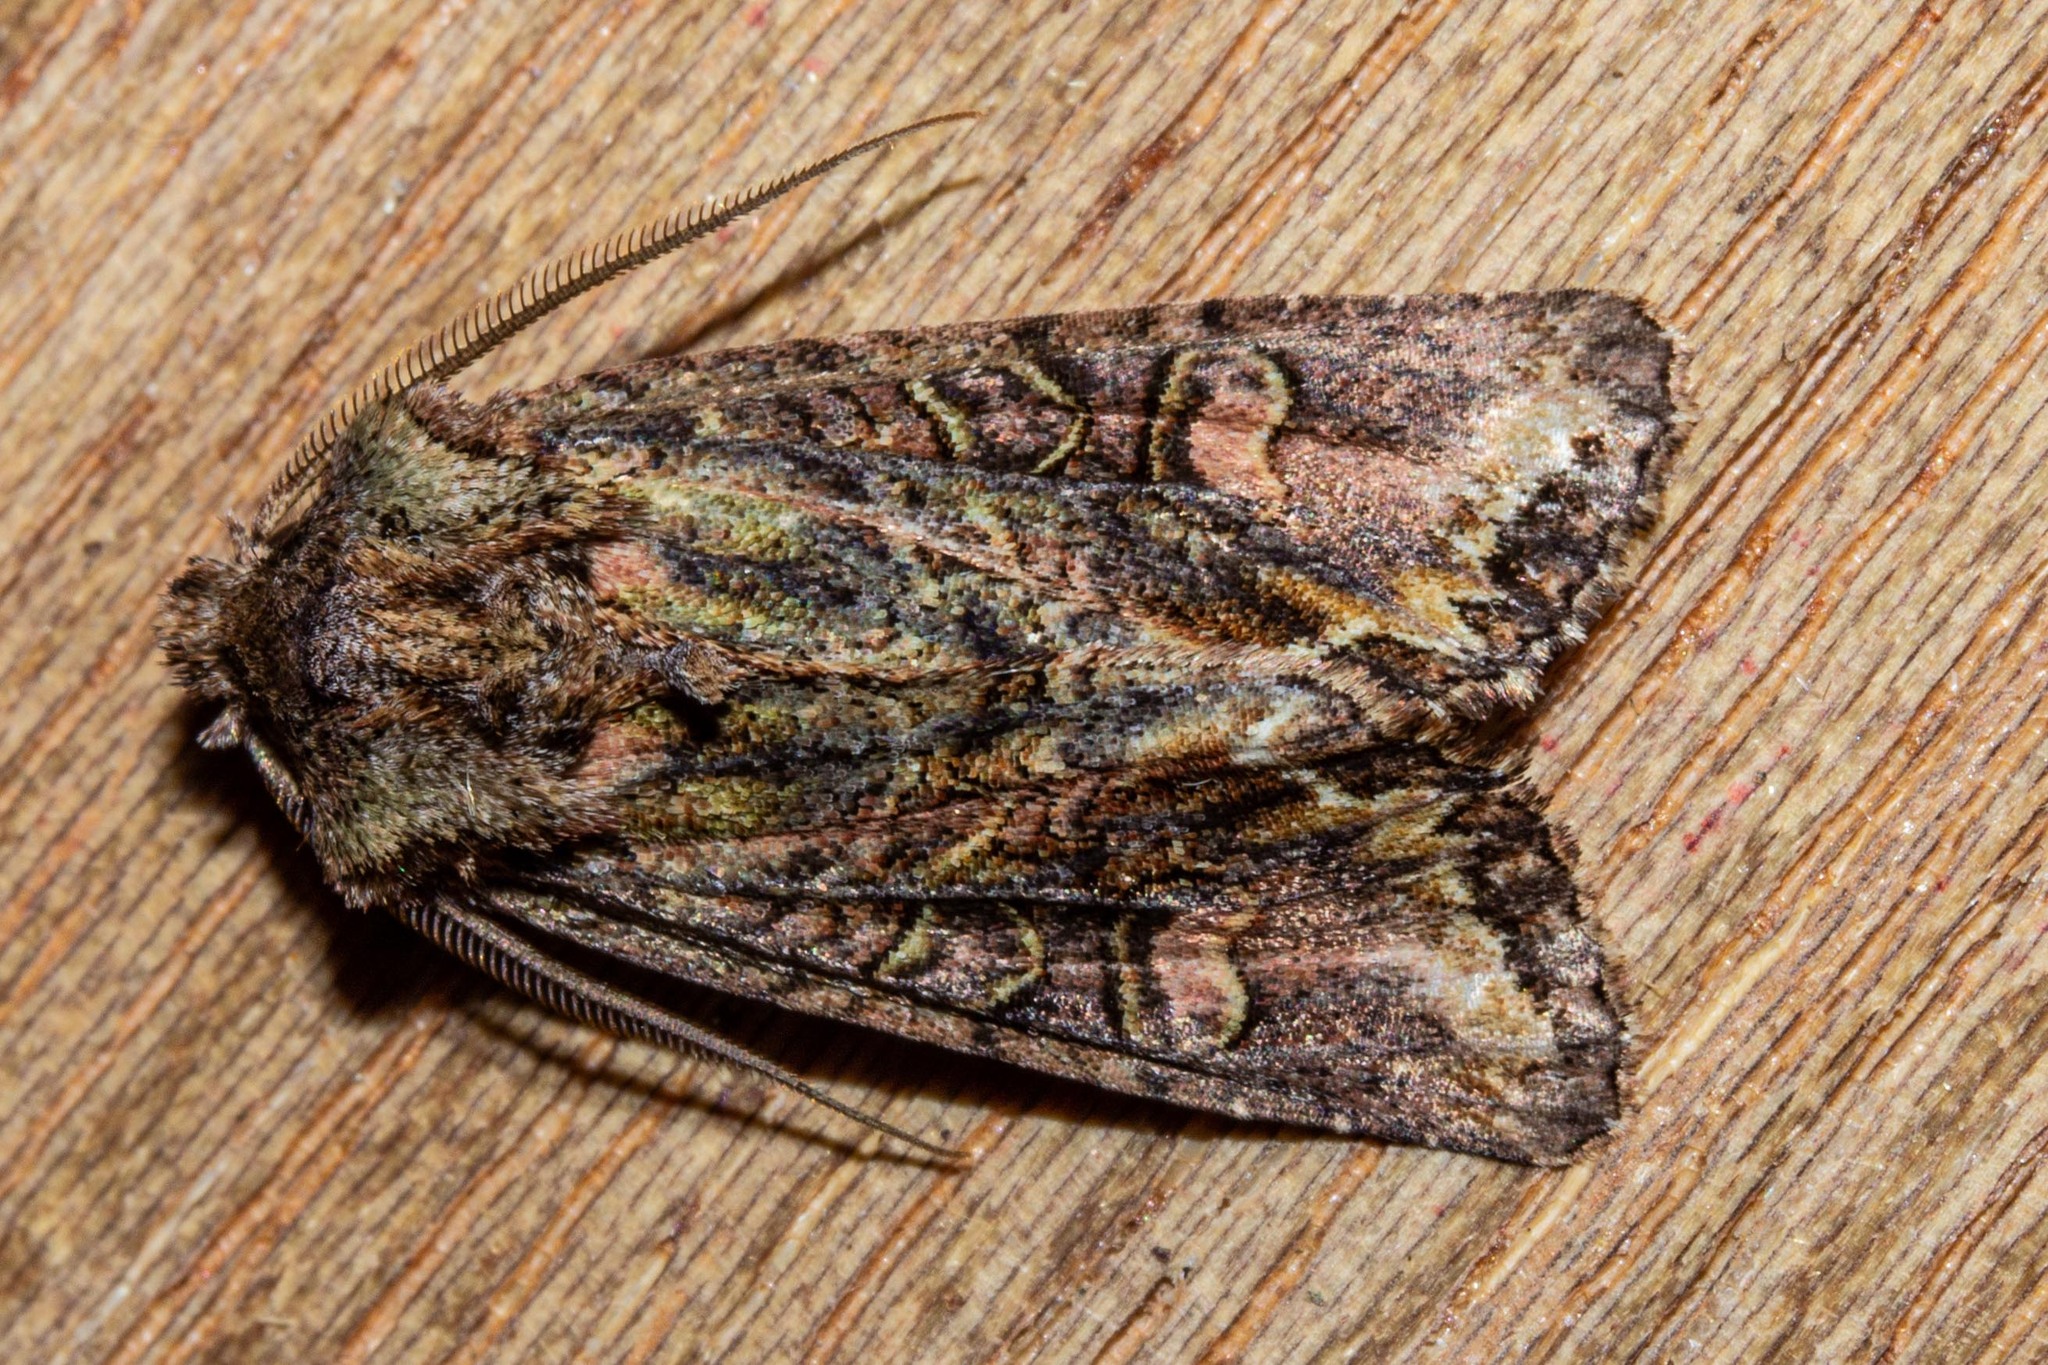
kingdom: Animalia
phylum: Arthropoda
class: Insecta
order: Lepidoptera
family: Noctuidae
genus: Ichneutica
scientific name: Ichneutica skelloni
